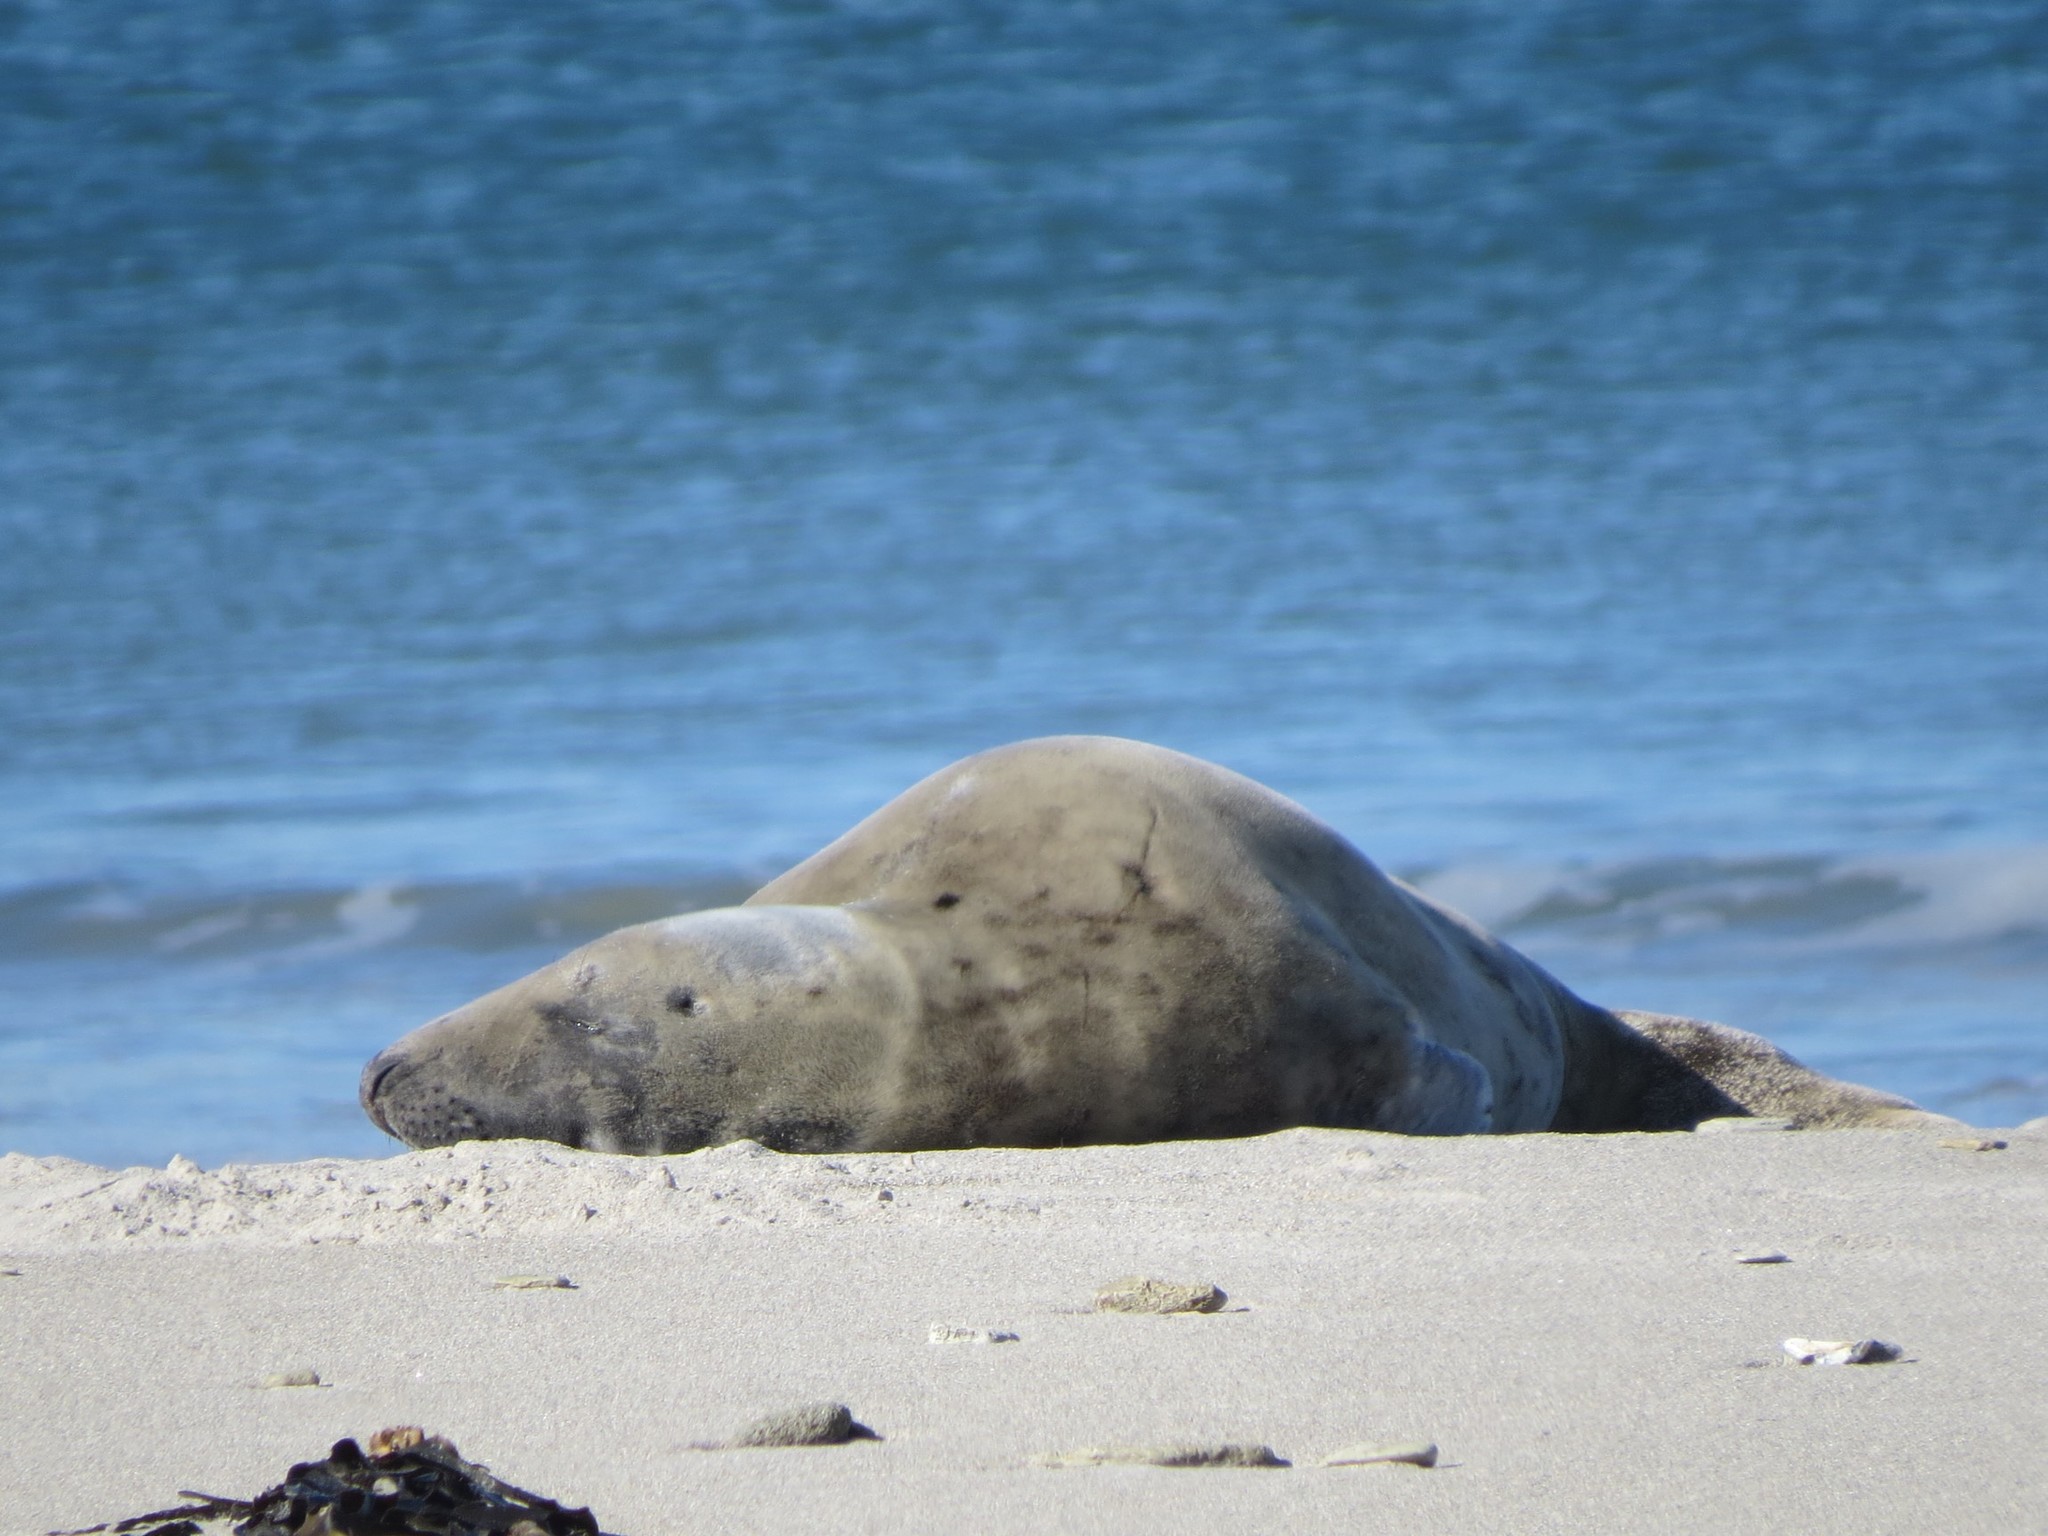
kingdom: Animalia
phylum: Chordata
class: Mammalia
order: Carnivora
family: Phocidae
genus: Halichoerus
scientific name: Halichoerus grypus
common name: Grey seal
